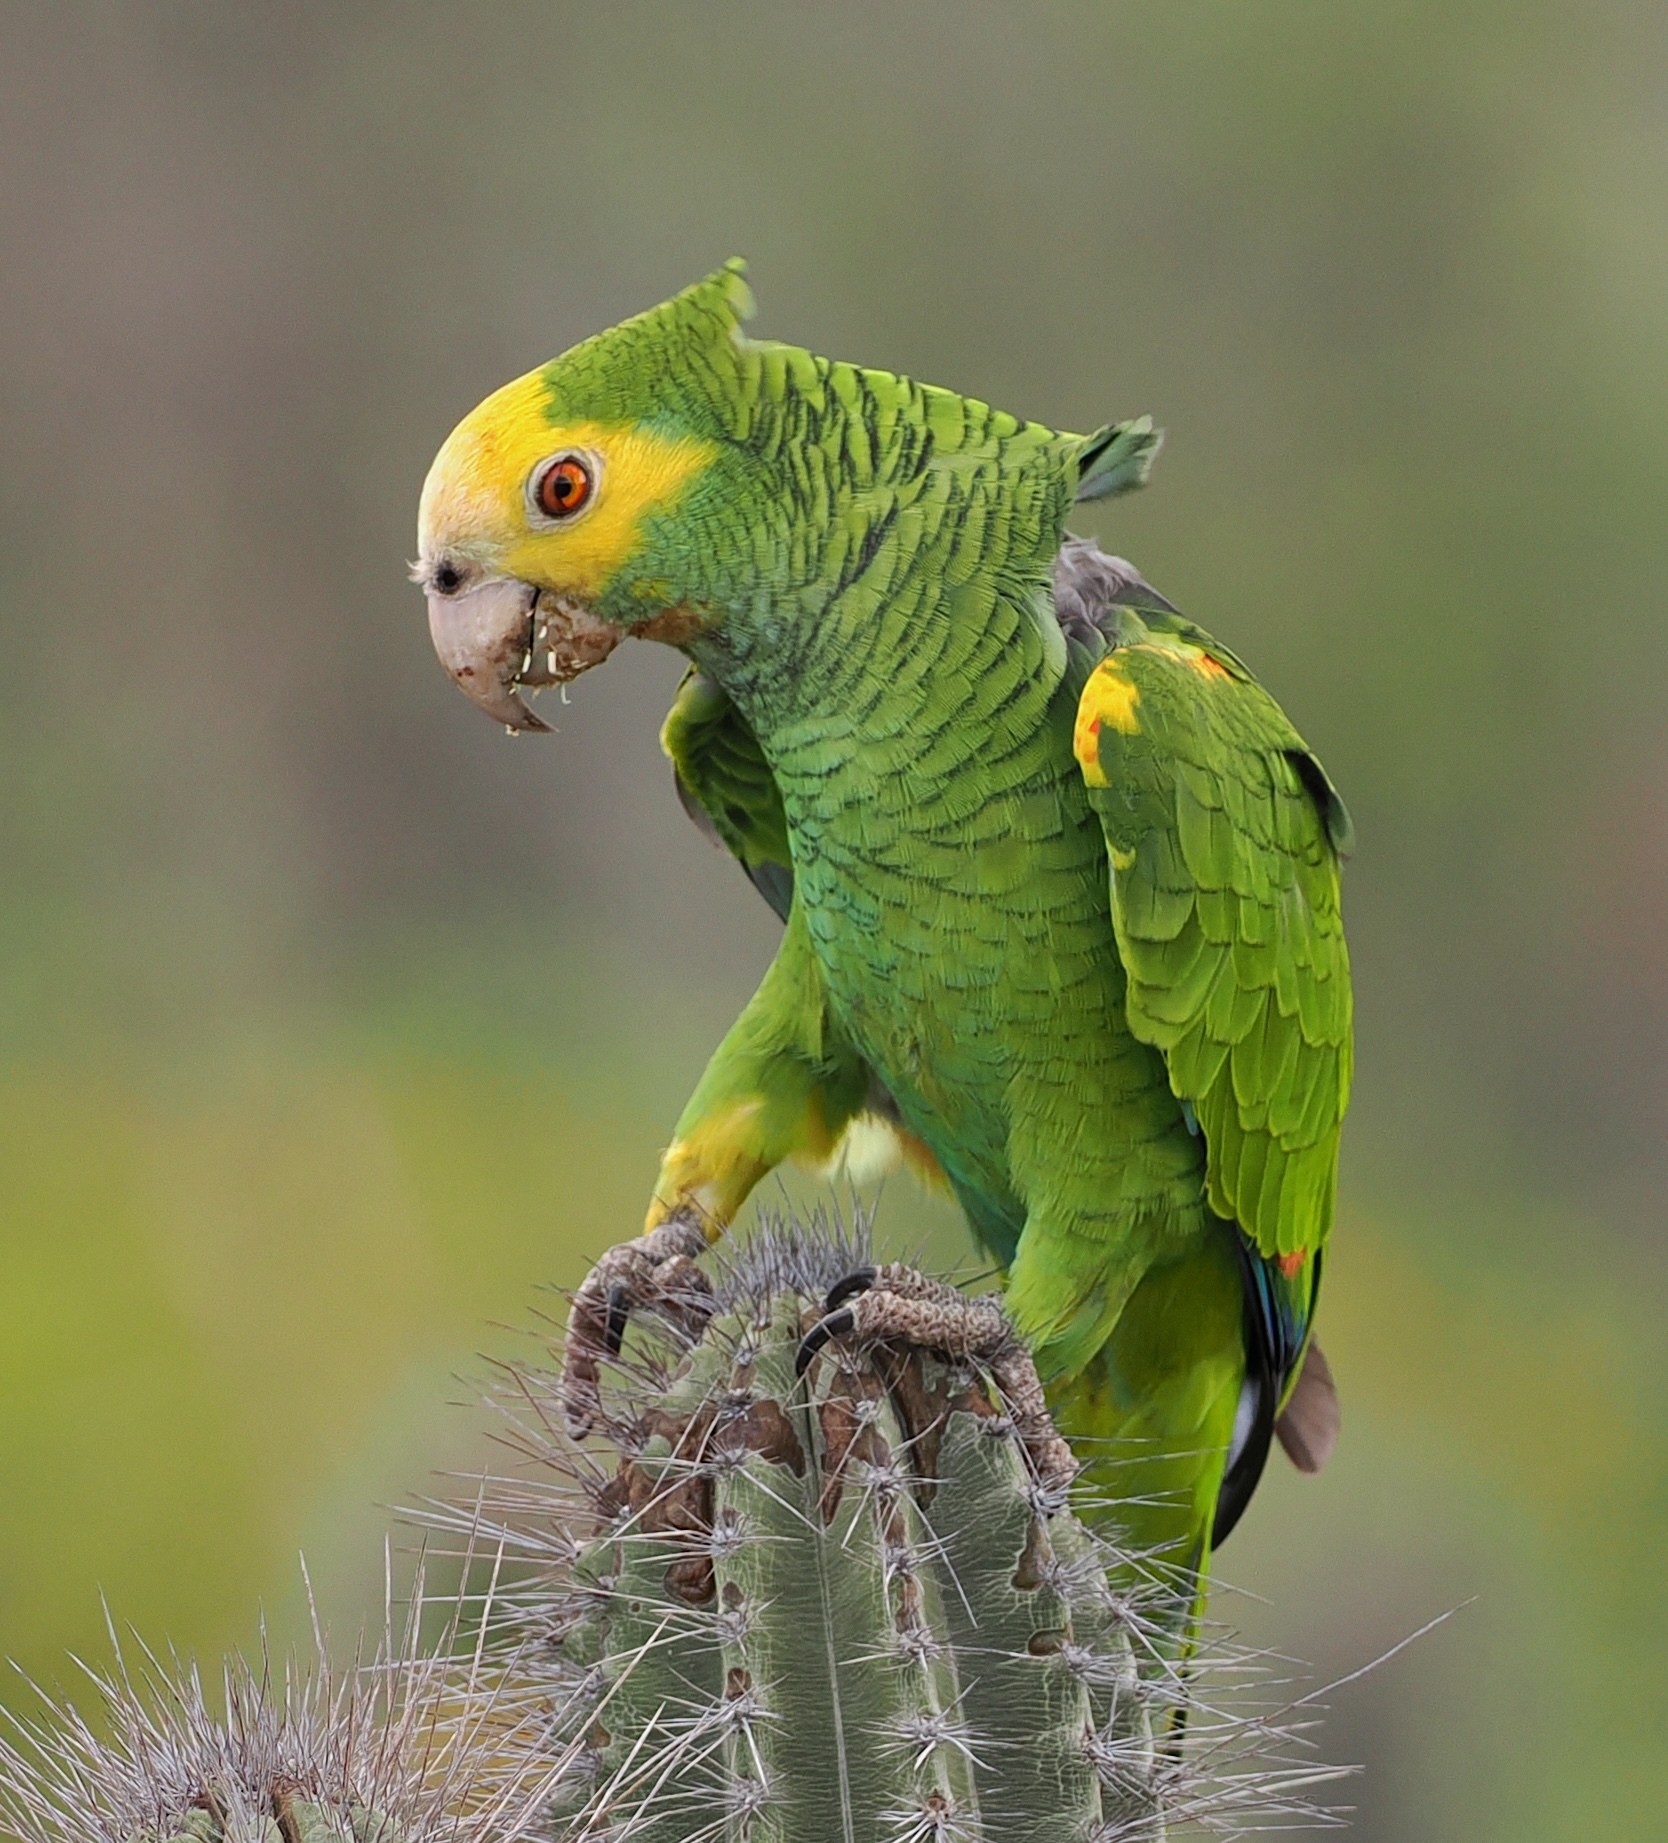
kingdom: Animalia
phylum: Chordata
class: Aves
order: Psittaciformes
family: Psittacidae
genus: Amazona
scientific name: Amazona barbadensis
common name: Yellow-shouldered amazon
